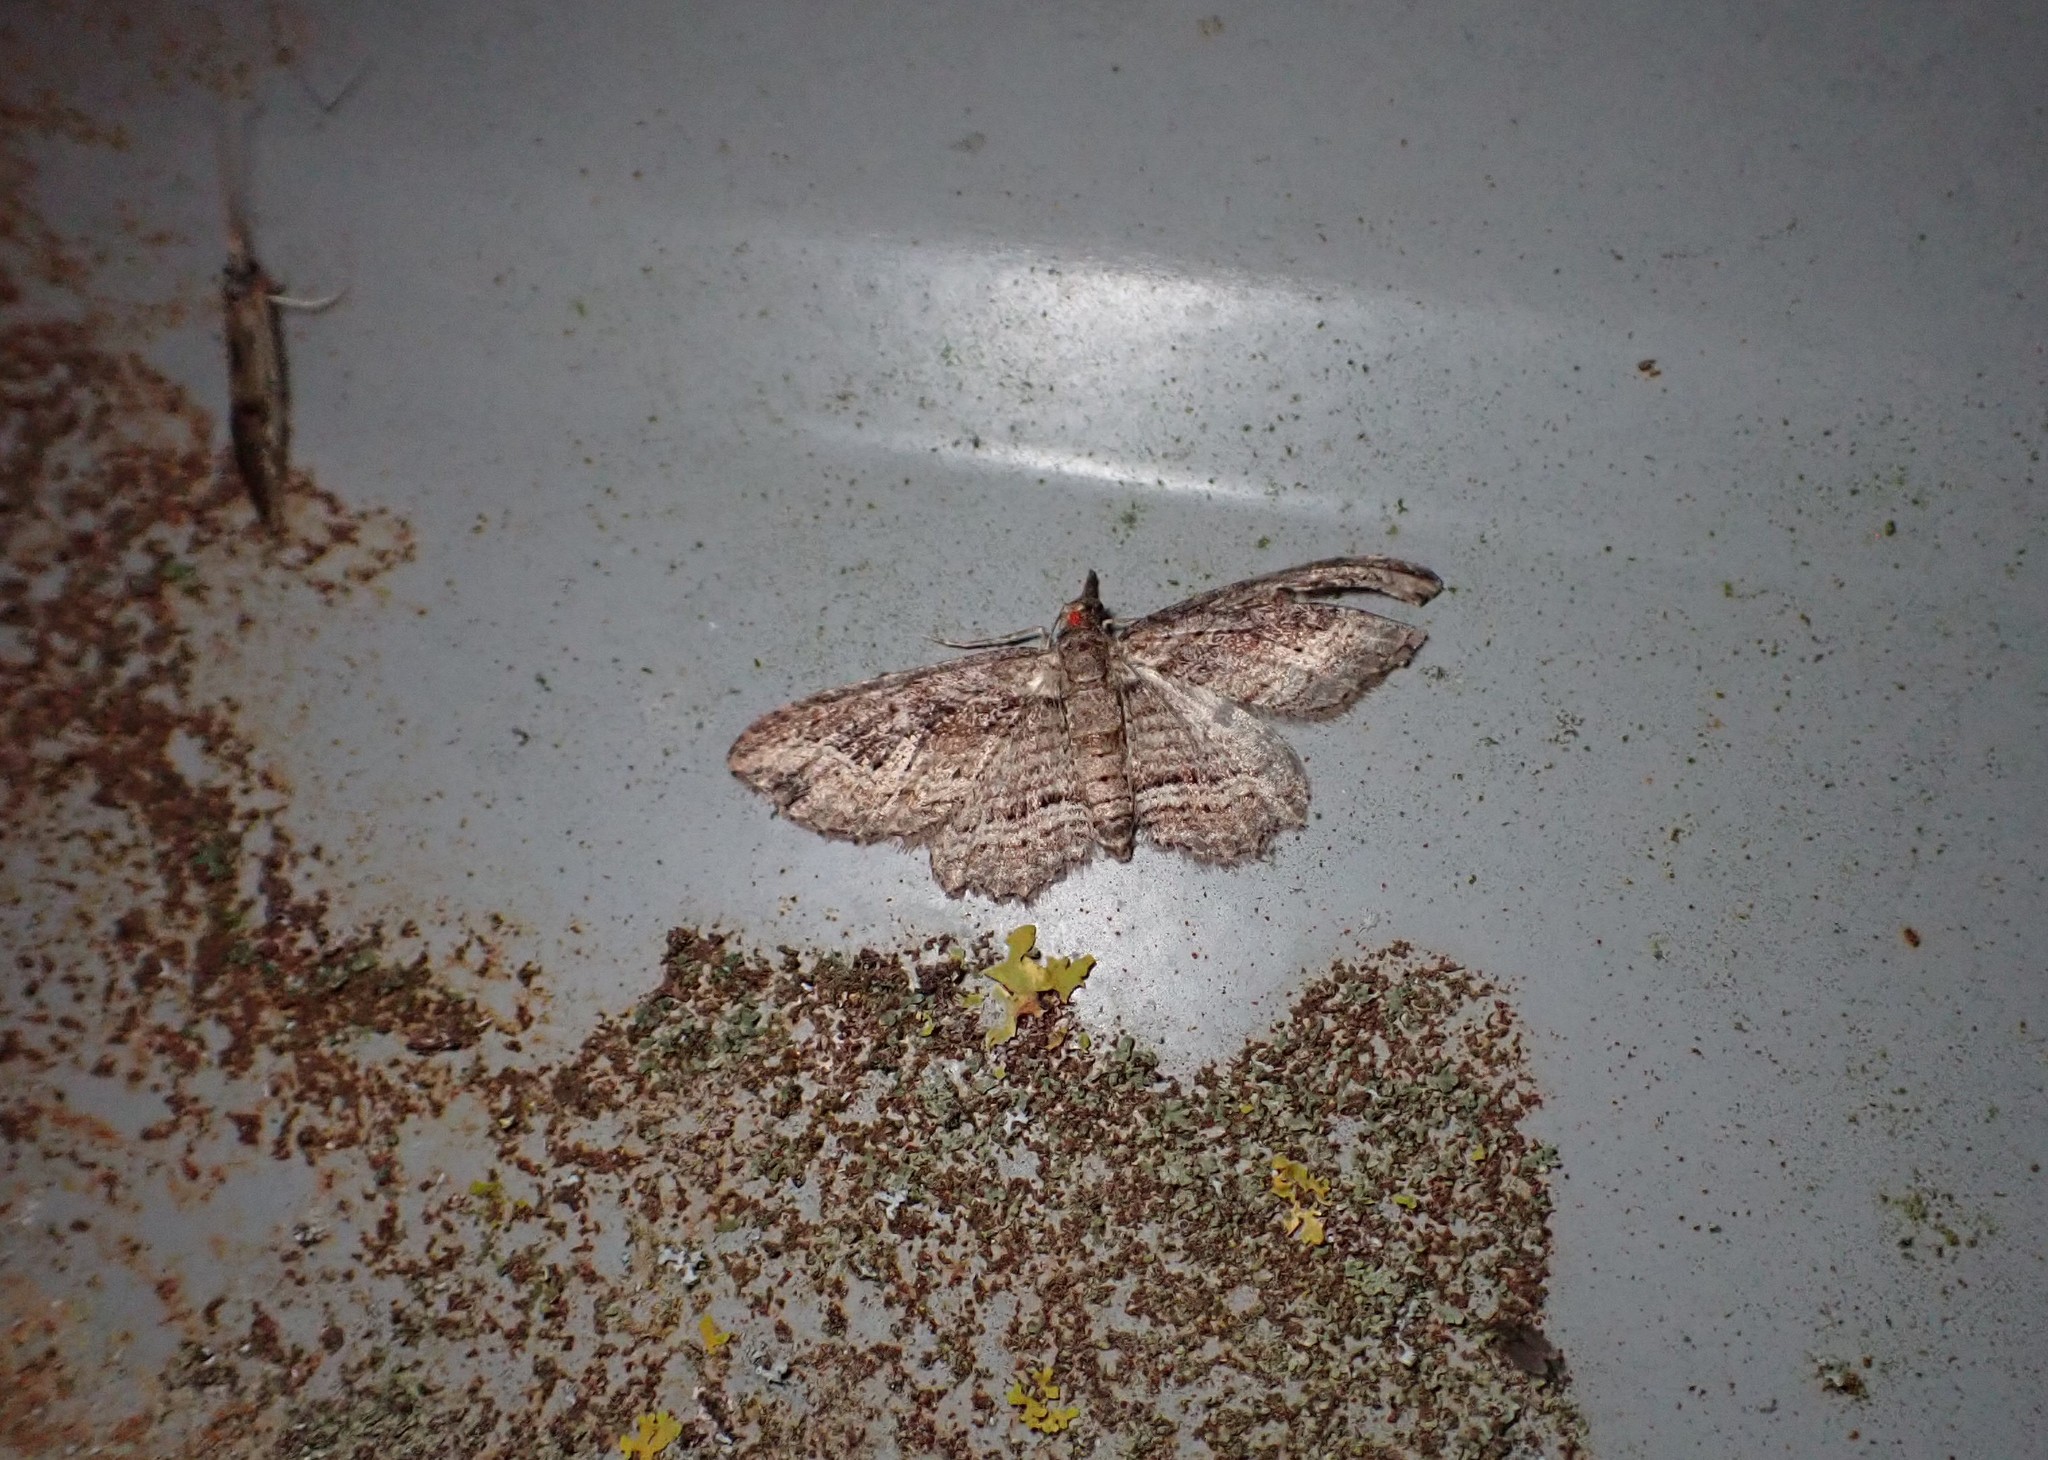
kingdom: Animalia
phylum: Arthropoda
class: Insecta
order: Lepidoptera
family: Geometridae
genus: Chloroclystis
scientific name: Chloroclystis filata
